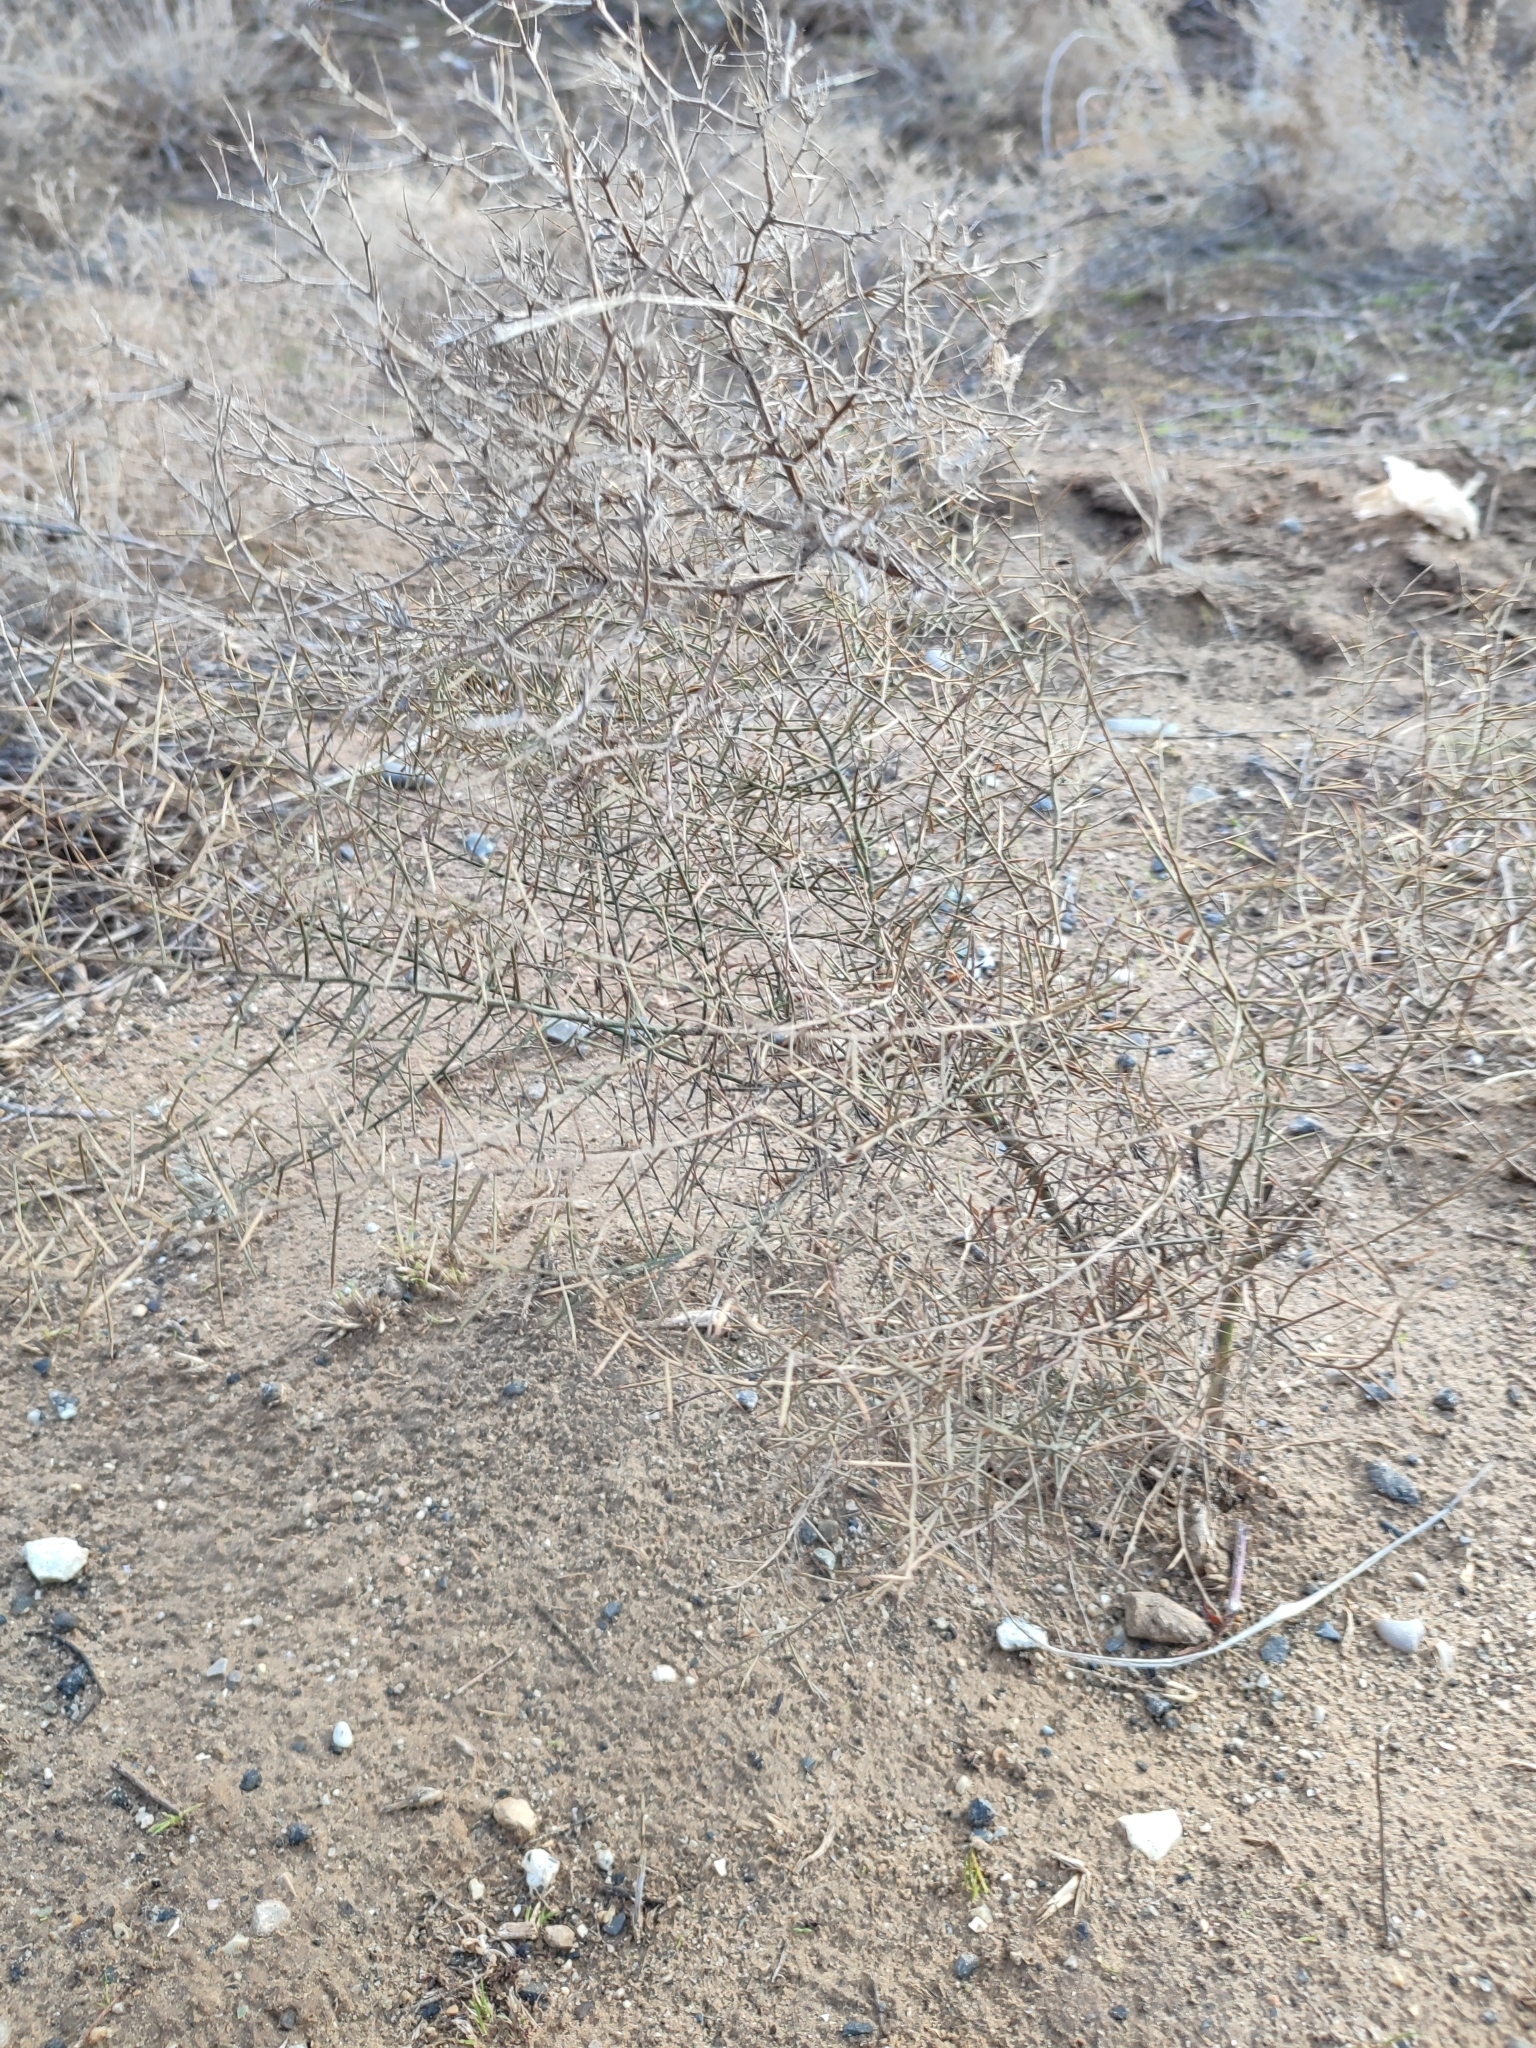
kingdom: Plantae
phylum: Tracheophyta
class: Magnoliopsida
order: Fabales
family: Fabaceae
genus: Alhagi
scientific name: Alhagi pseudalhagi
